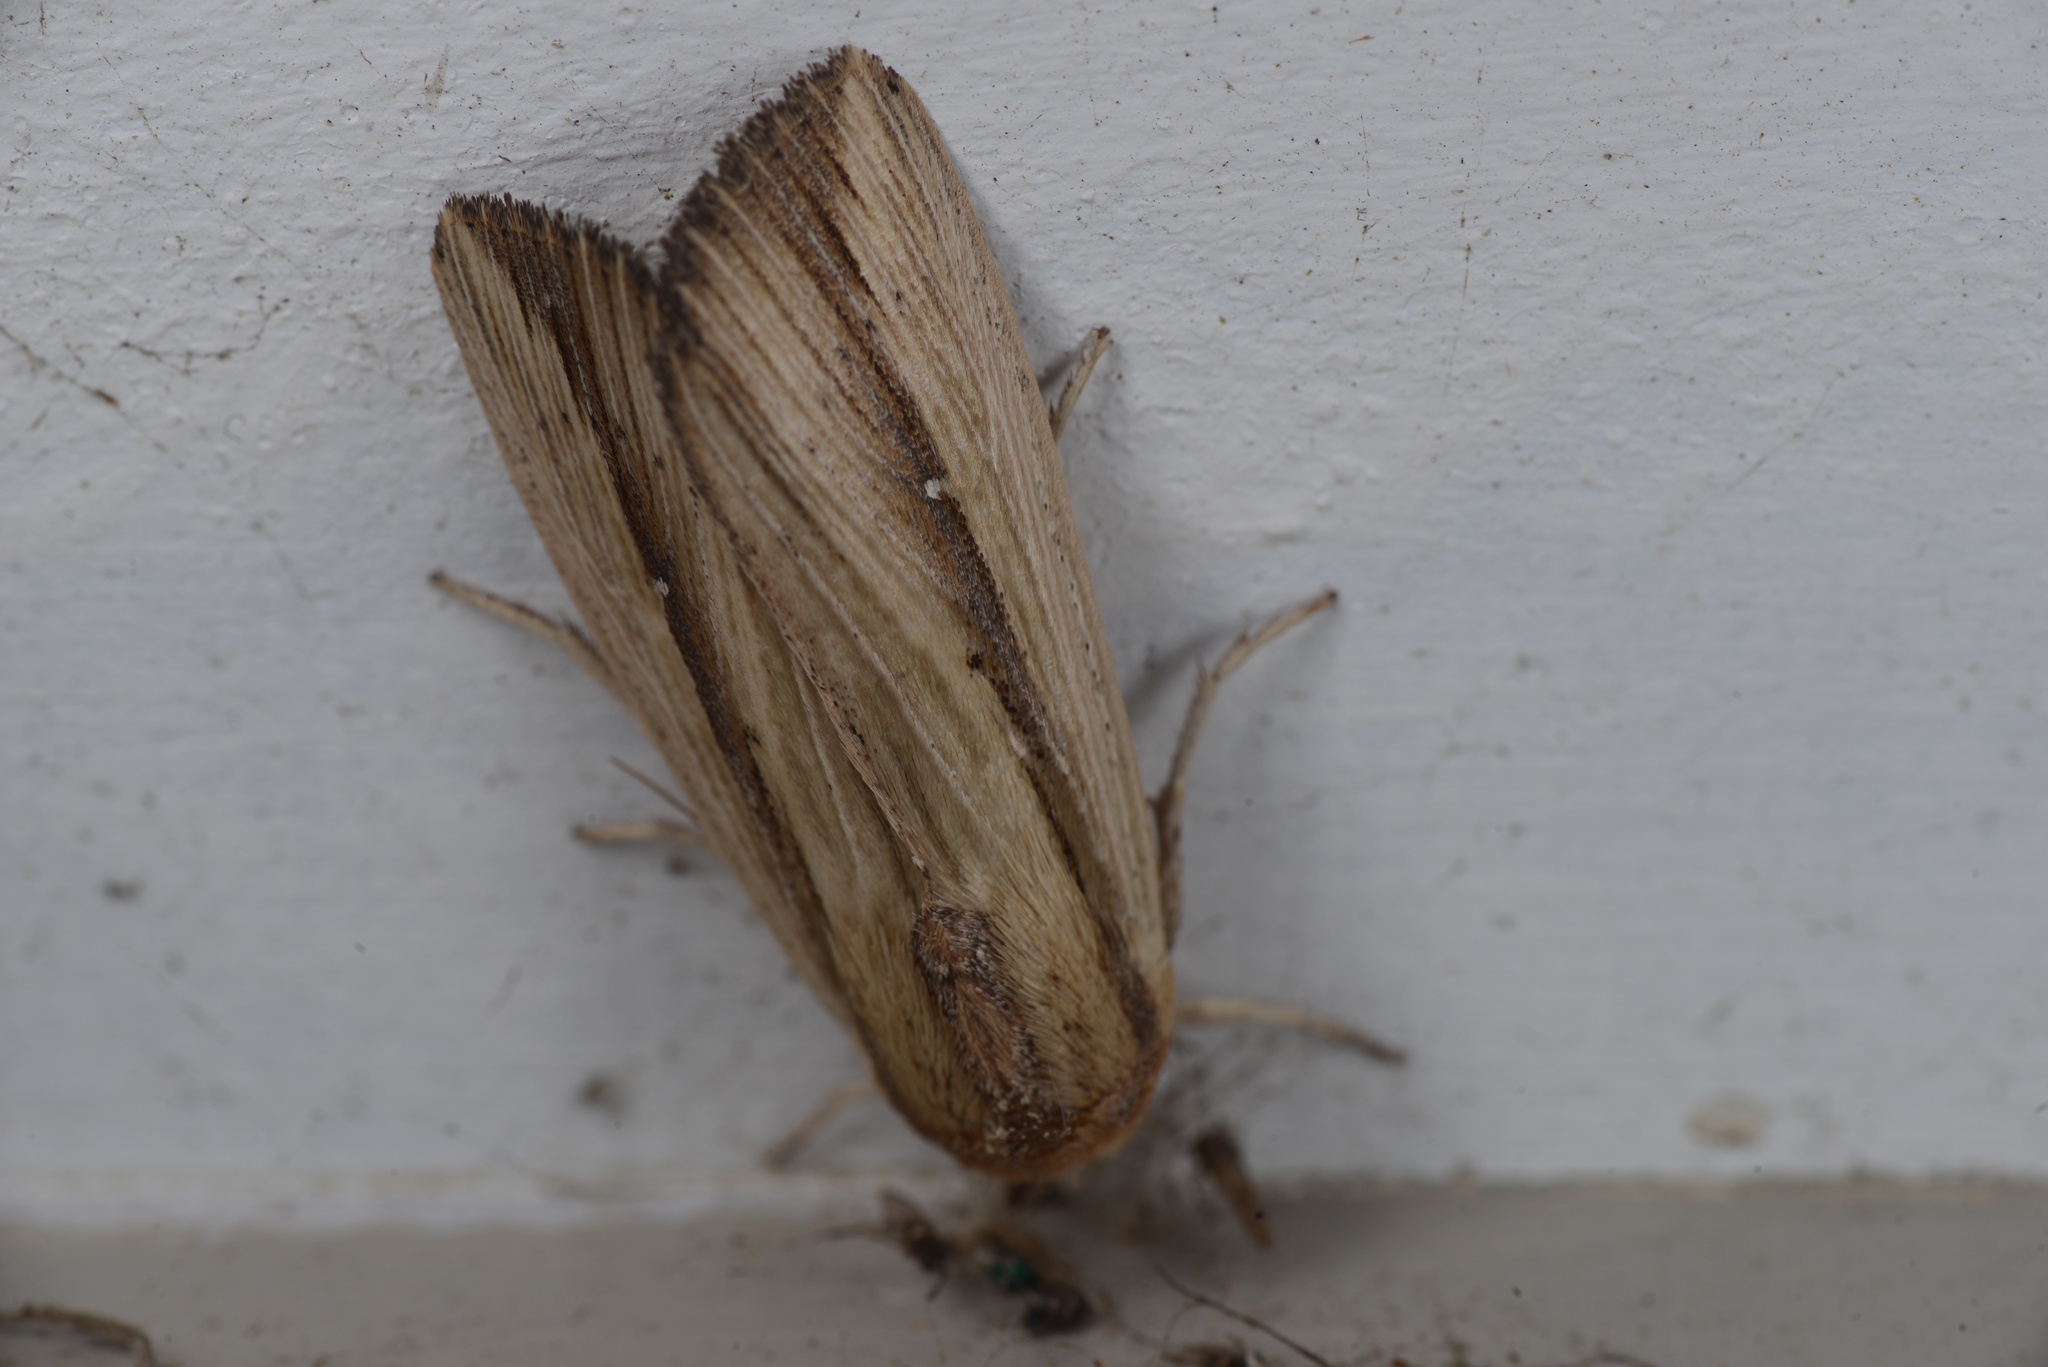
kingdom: Animalia
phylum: Arthropoda
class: Insecta
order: Lepidoptera
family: Noctuidae
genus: Leucania
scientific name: Leucania stenographa
